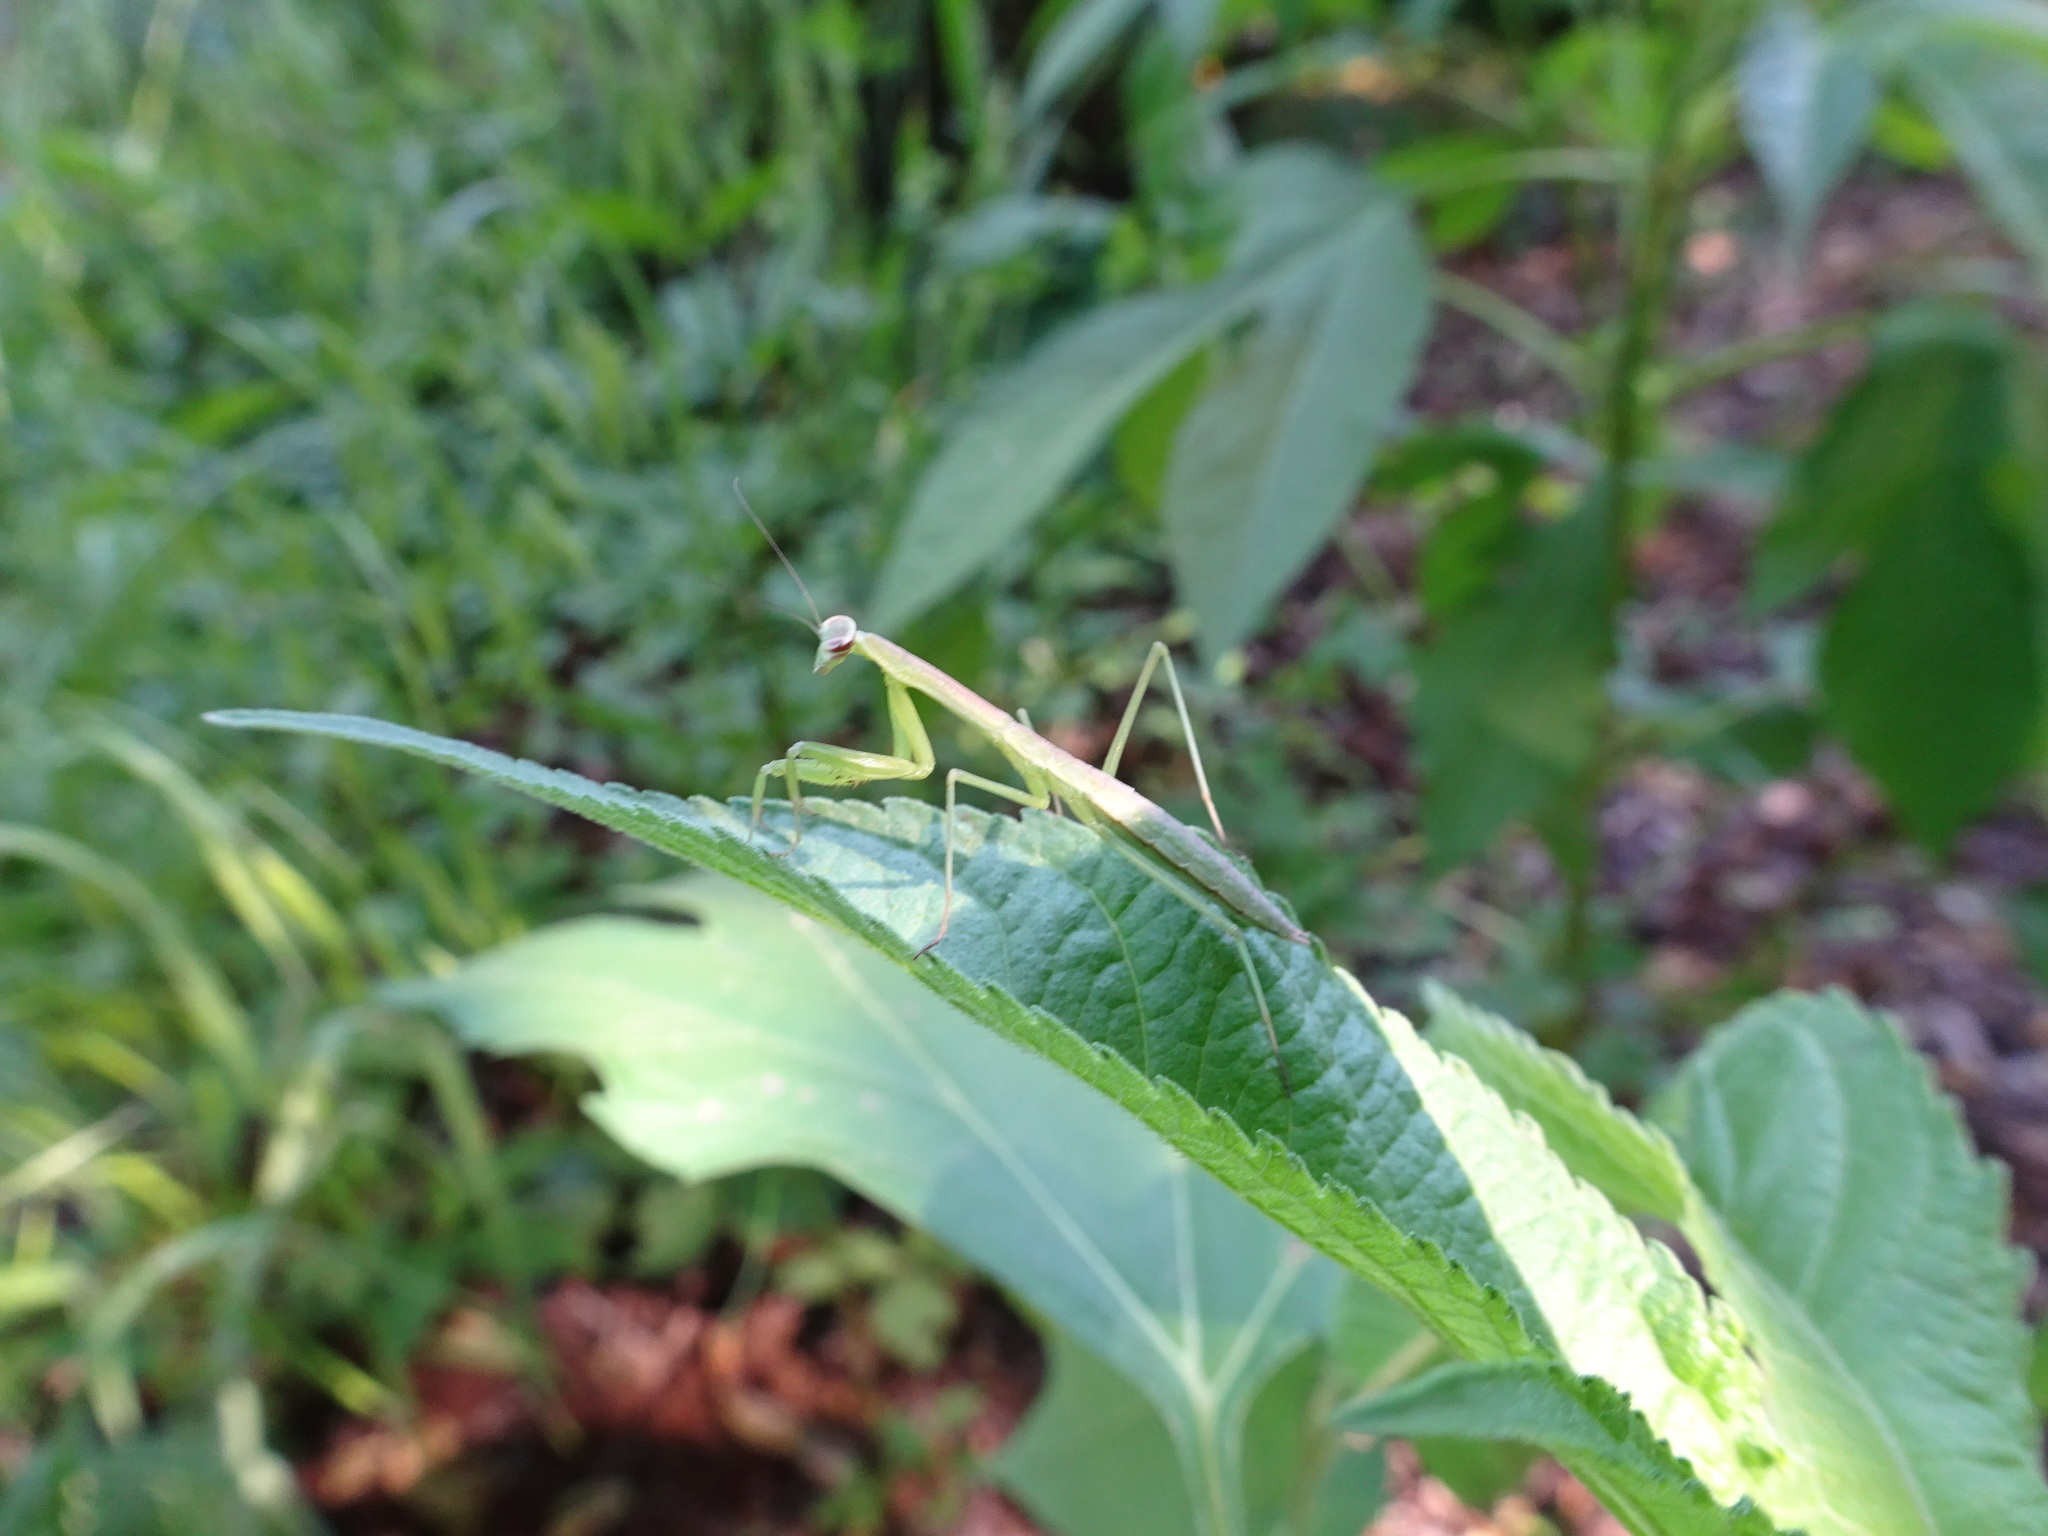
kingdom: Animalia
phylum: Arthropoda
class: Insecta
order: Mantodea
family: Mantidae
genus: Tenodera
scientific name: Tenodera sinensis
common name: Chinese mantis
